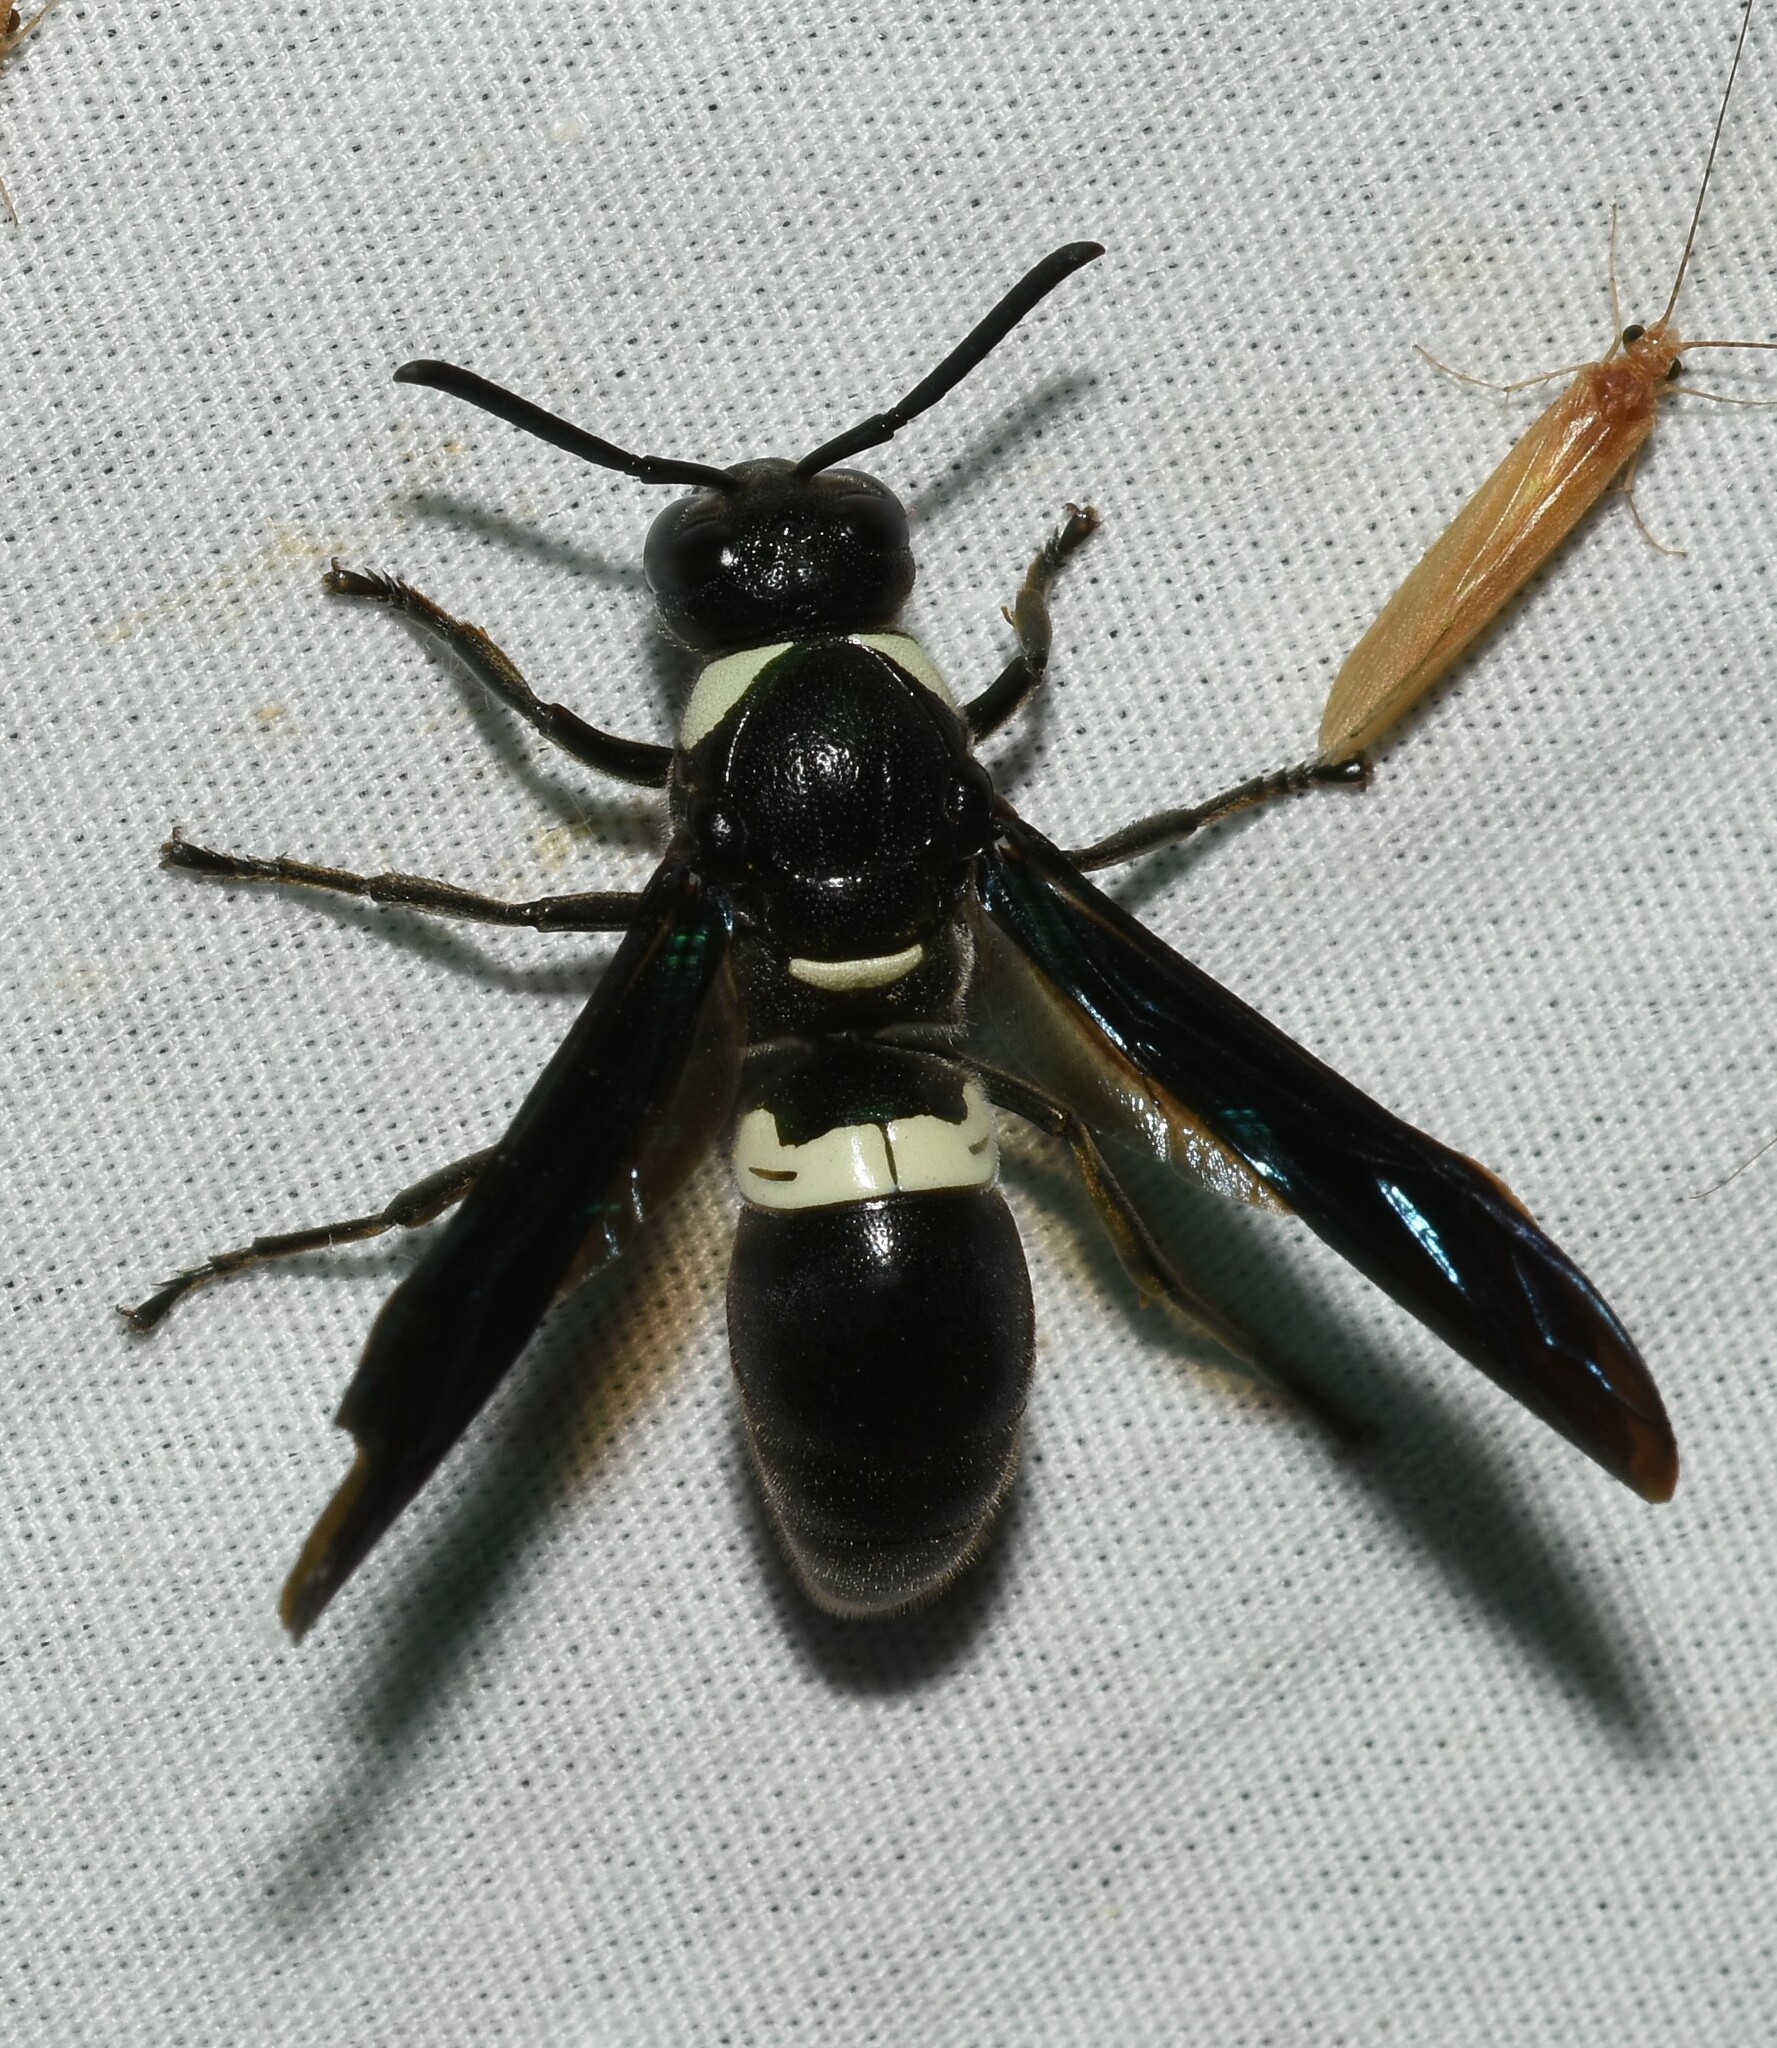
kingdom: Animalia
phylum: Arthropoda
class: Insecta
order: Hymenoptera
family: Eumenidae
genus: Monobia
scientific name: Monobia quadridens
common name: Four-toothed mason wasp
